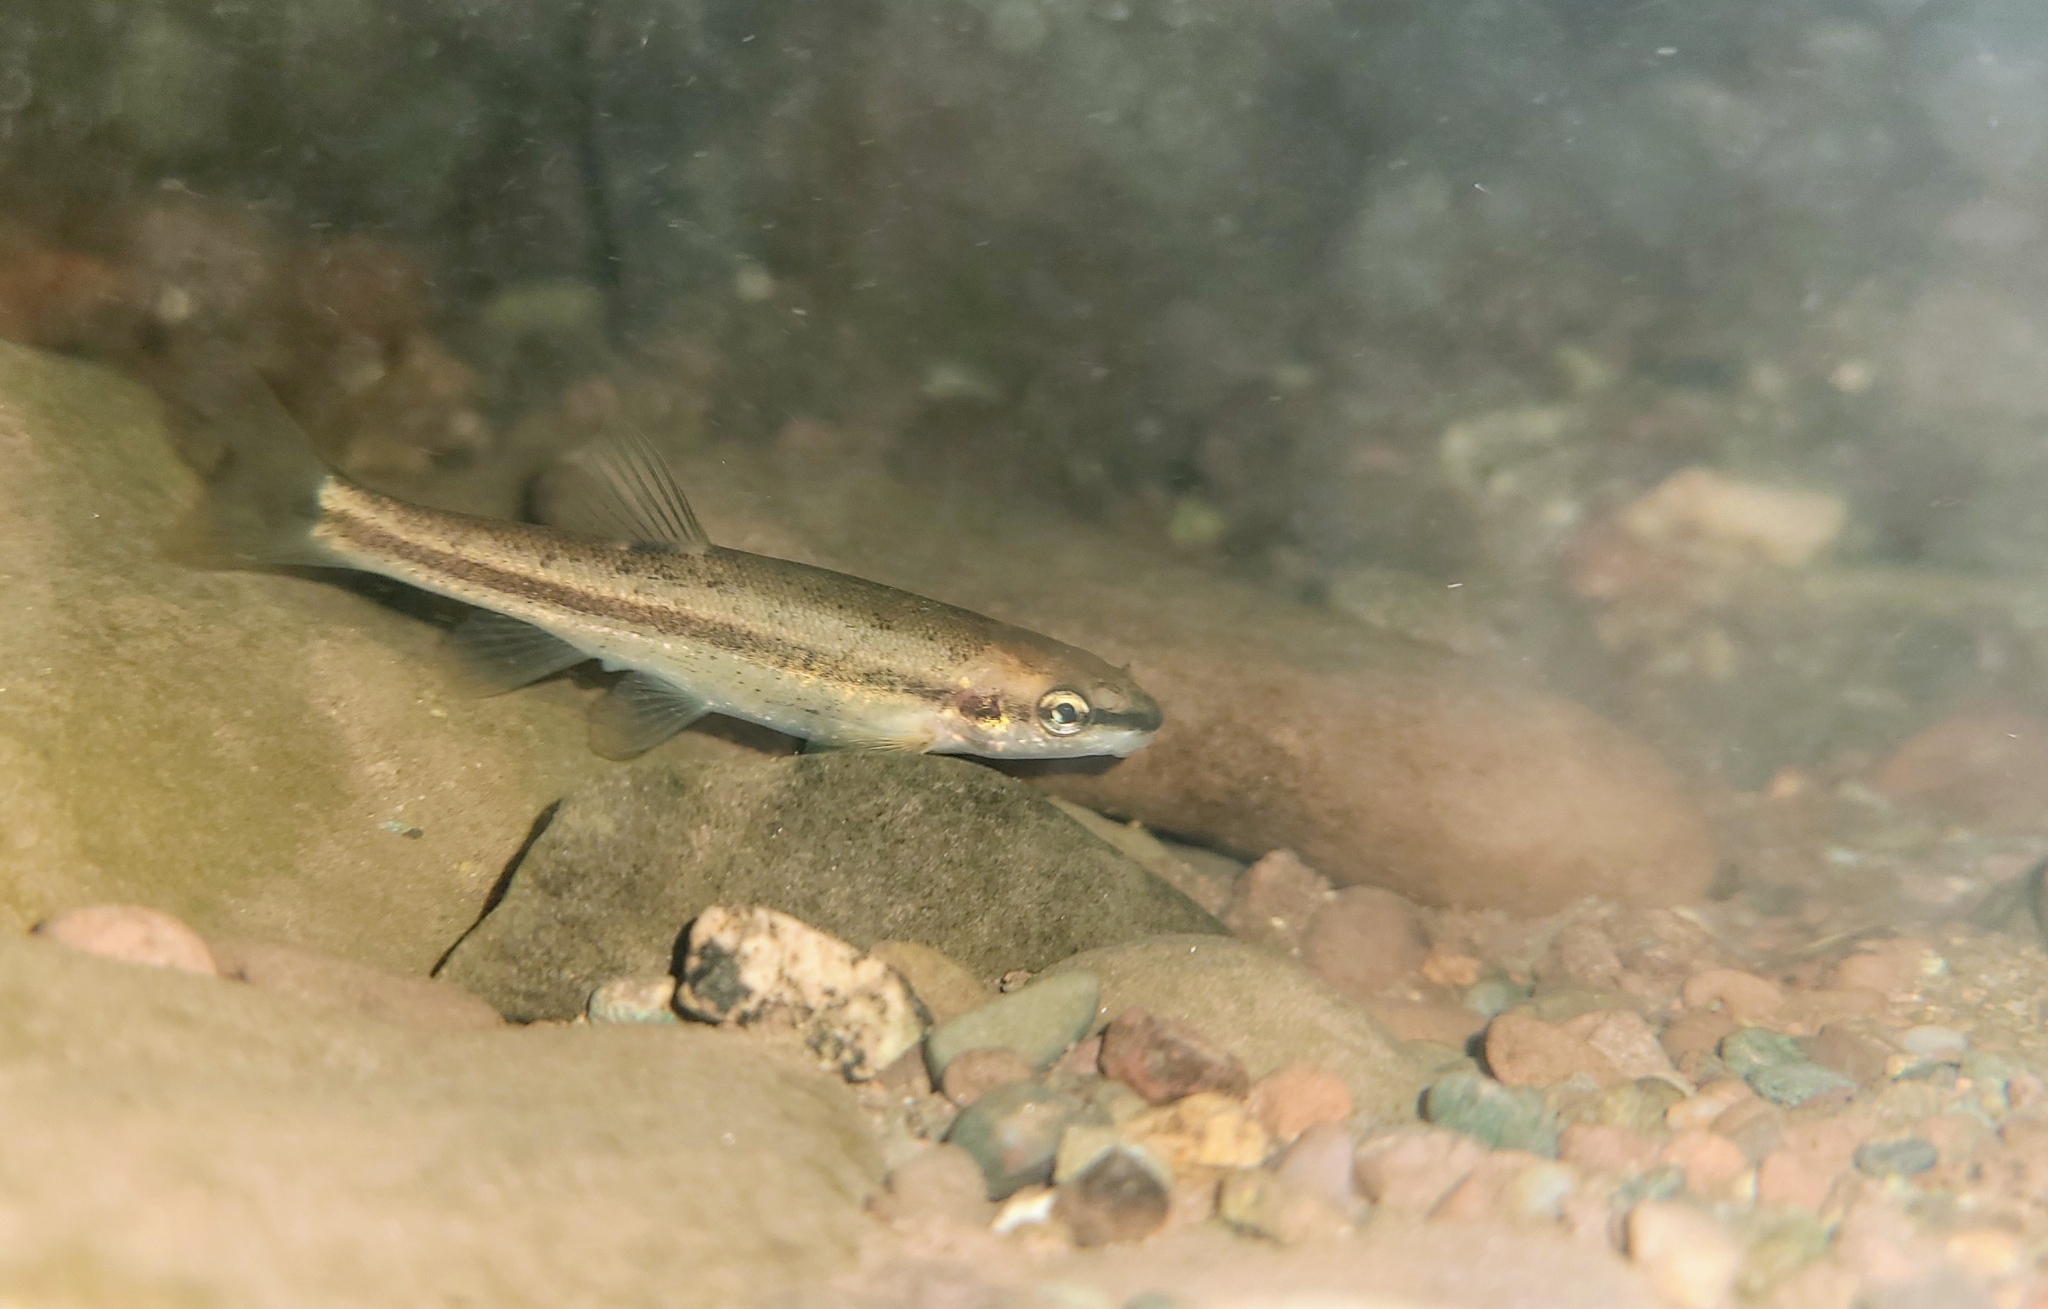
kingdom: Animalia
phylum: Chordata
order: Cypriniformes
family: Cyprinidae
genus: Rhinichthys
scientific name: Rhinichthys atratulus
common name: Eastern blacknose dace
